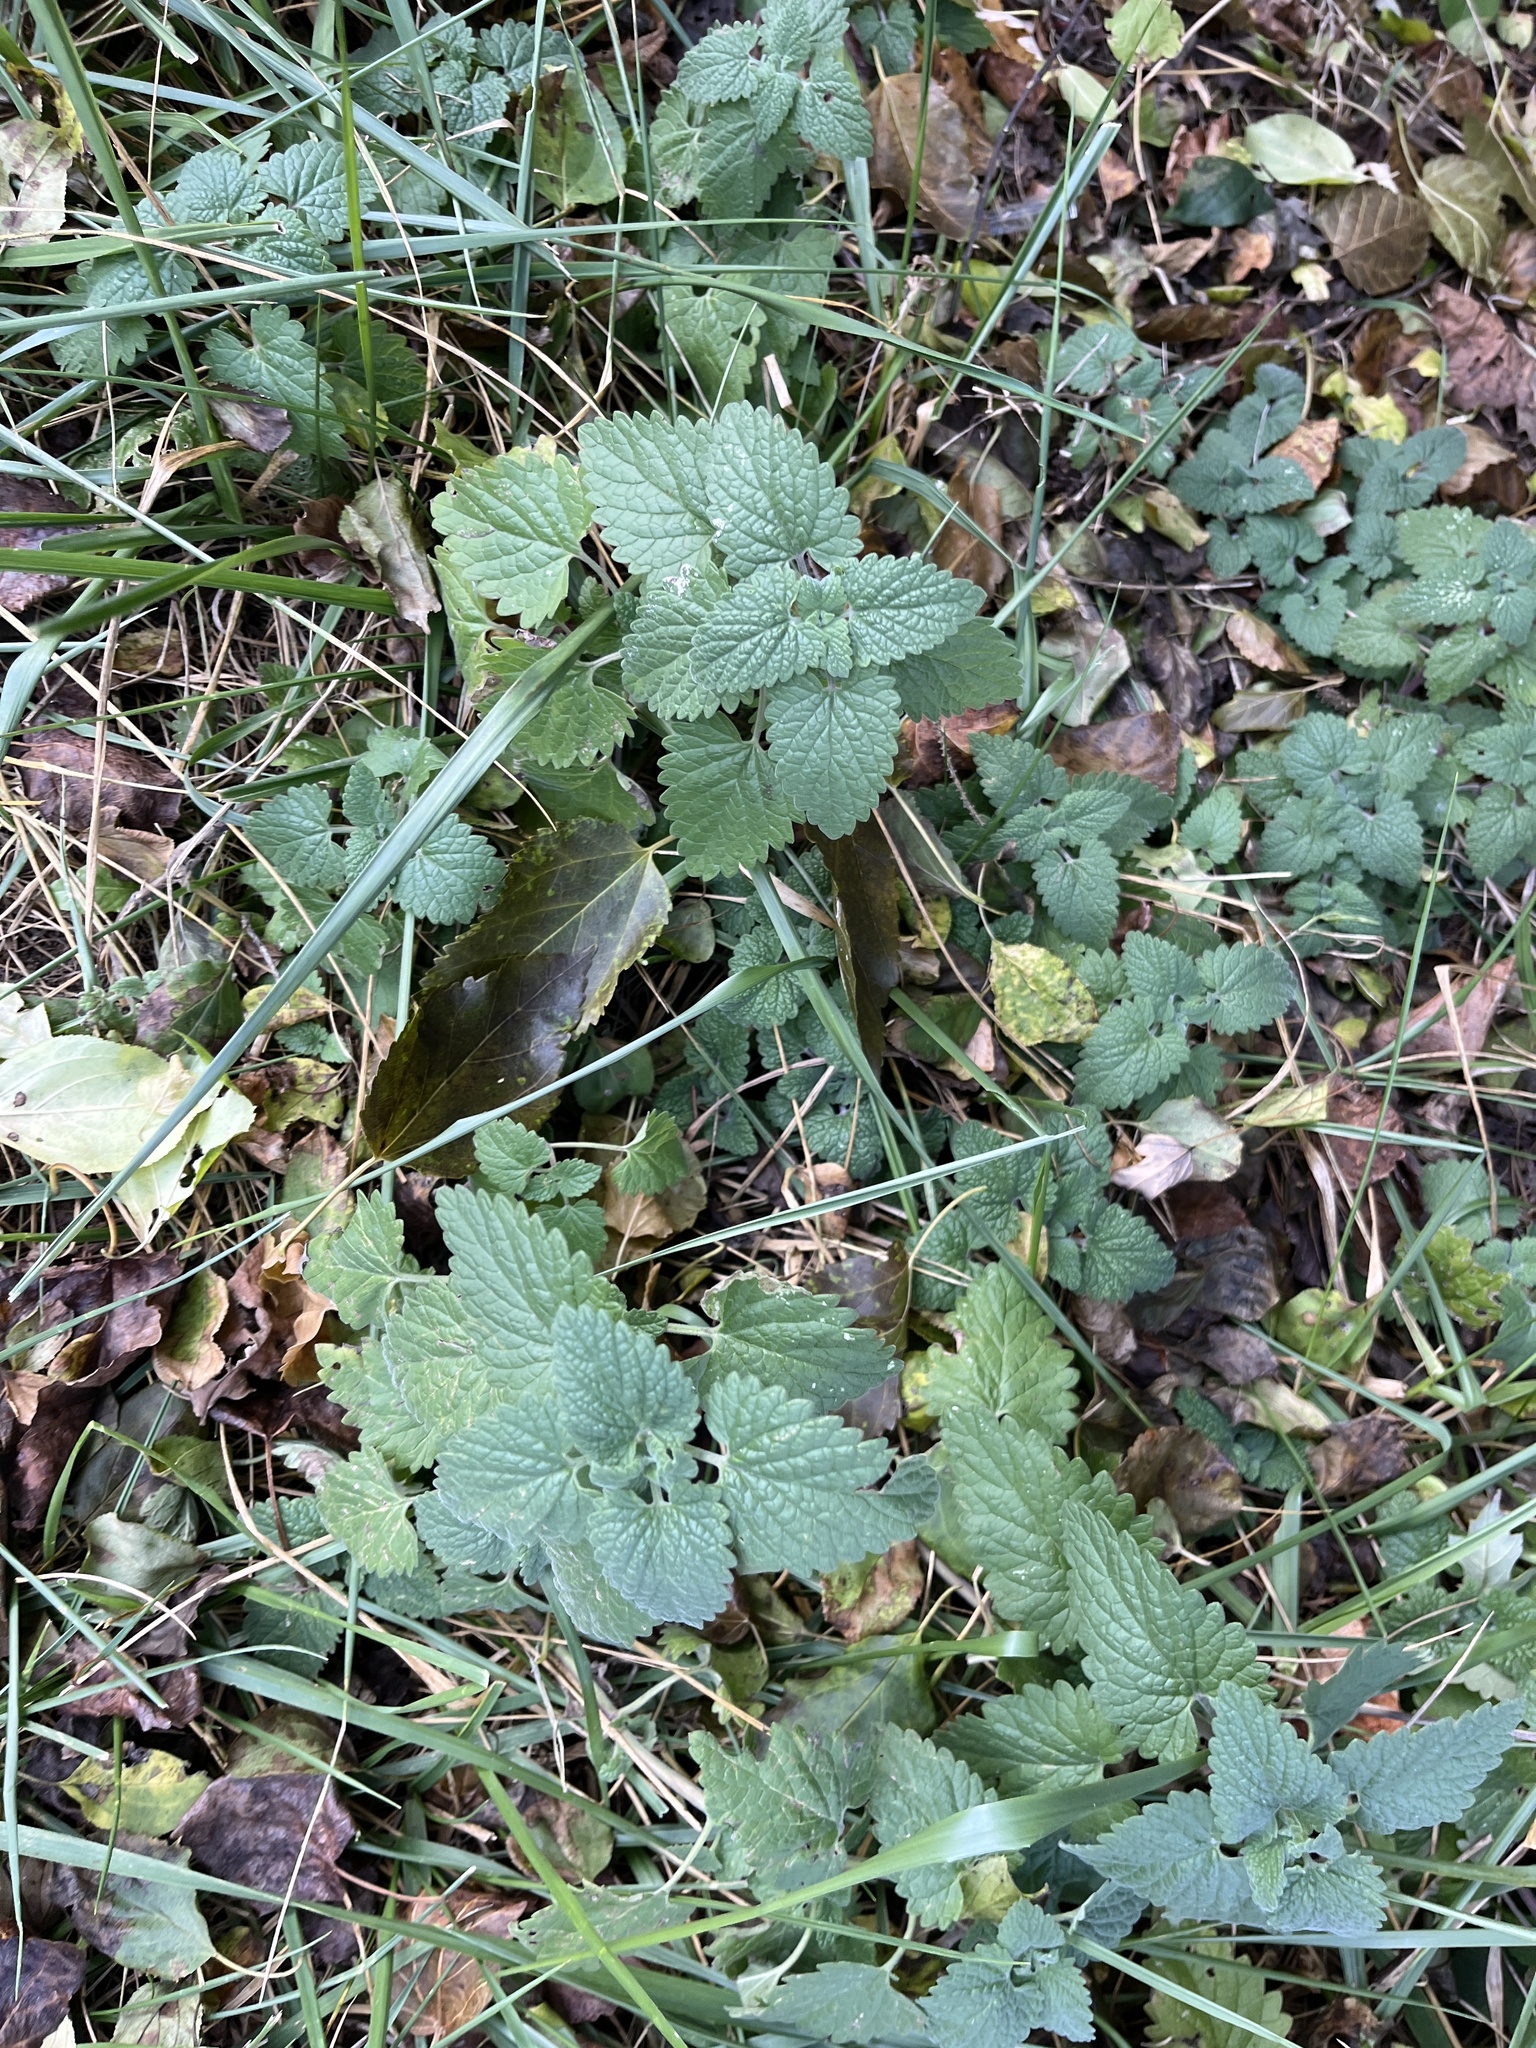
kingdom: Plantae
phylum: Tracheophyta
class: Magnoliopsida
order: Rosales
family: Urticaceae
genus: Urtica
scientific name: Urtica dioica
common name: Common nettle
